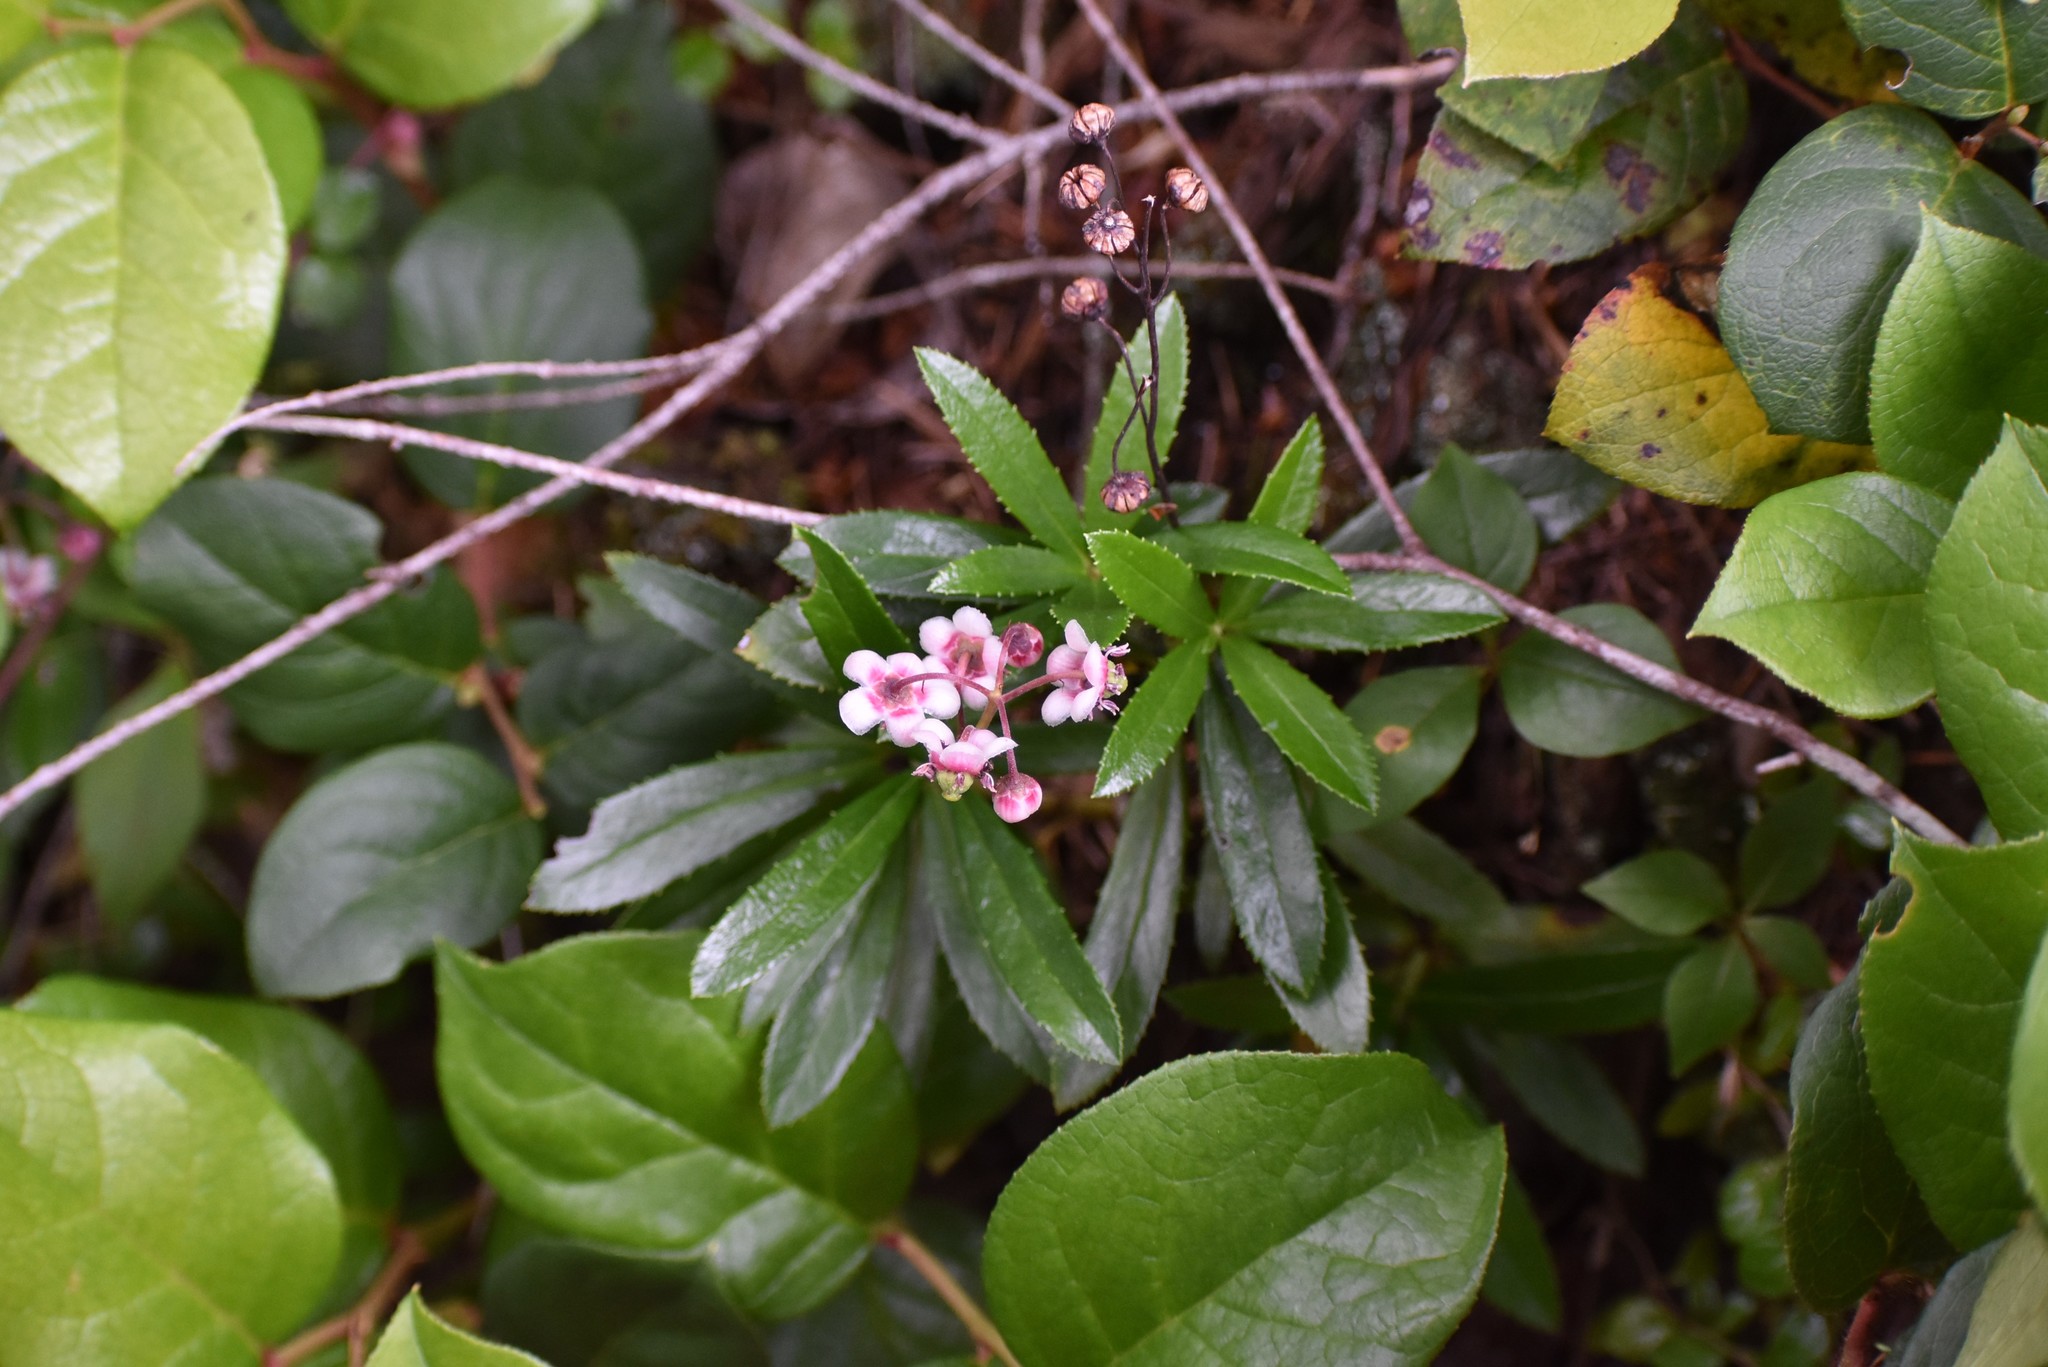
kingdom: Plantae
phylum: Tracheophyta
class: Magnoliopsida
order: Ericales
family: Ericaceae
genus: Chimaphila
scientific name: Chimaphila umbellata
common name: Pipsissewa
